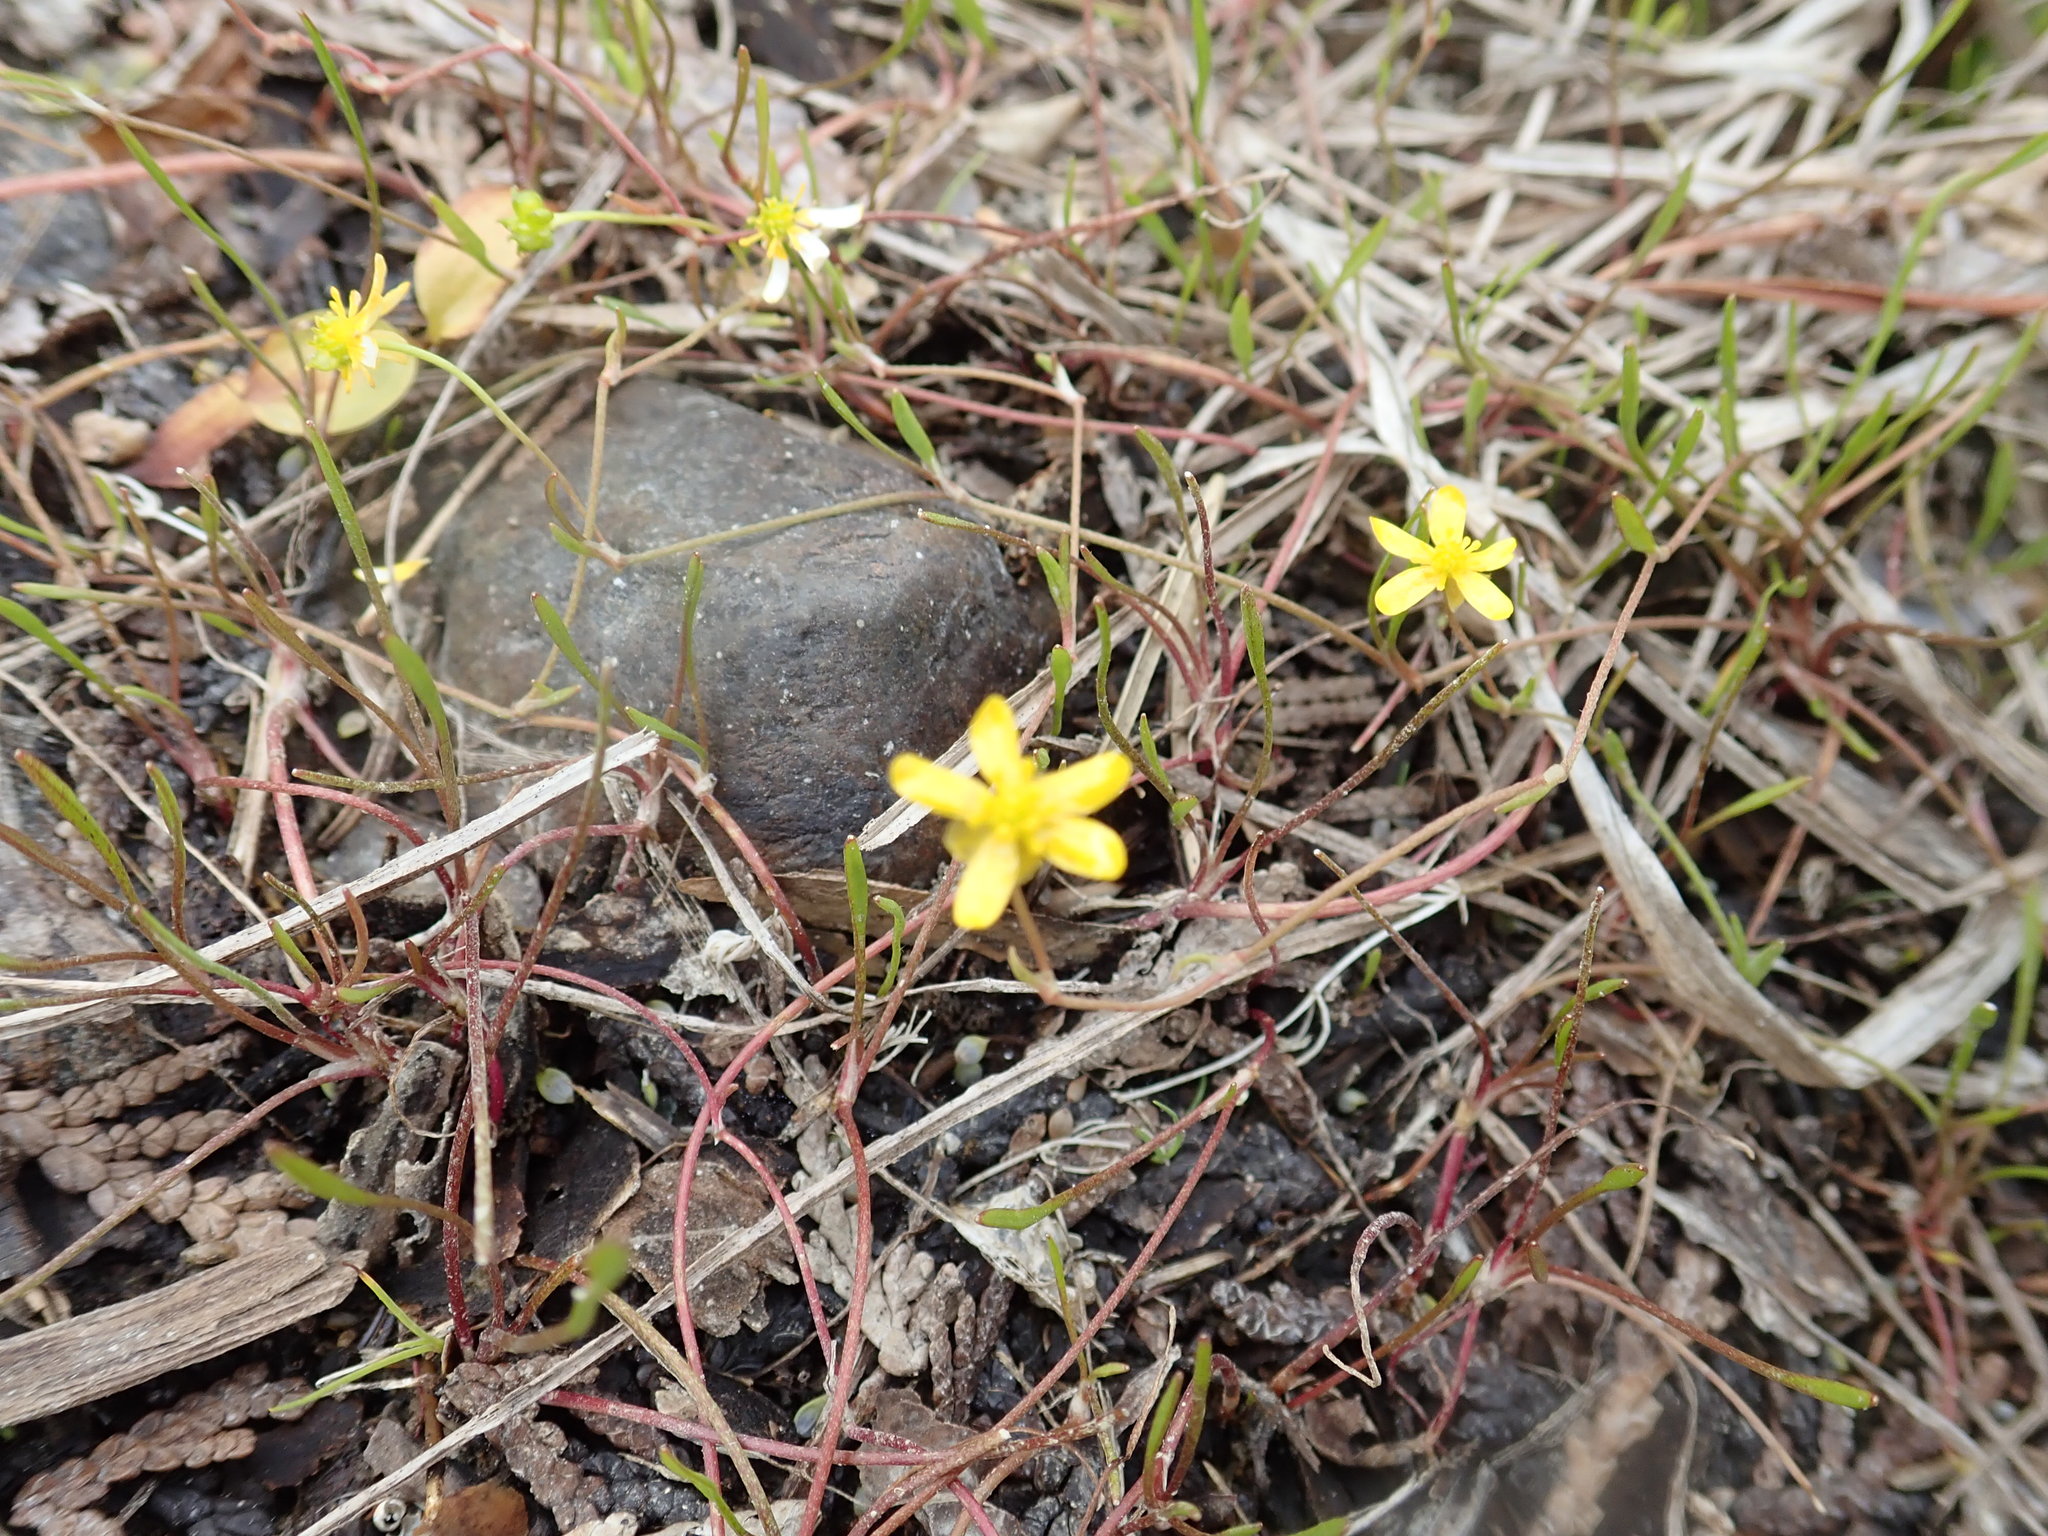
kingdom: Plantae
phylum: Tracheophyta
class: Magnoliopsida
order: Ranunculales
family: Ranunculaceae
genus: Ranunculus
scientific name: Ranunculus reptans
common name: Creeping spearwort
